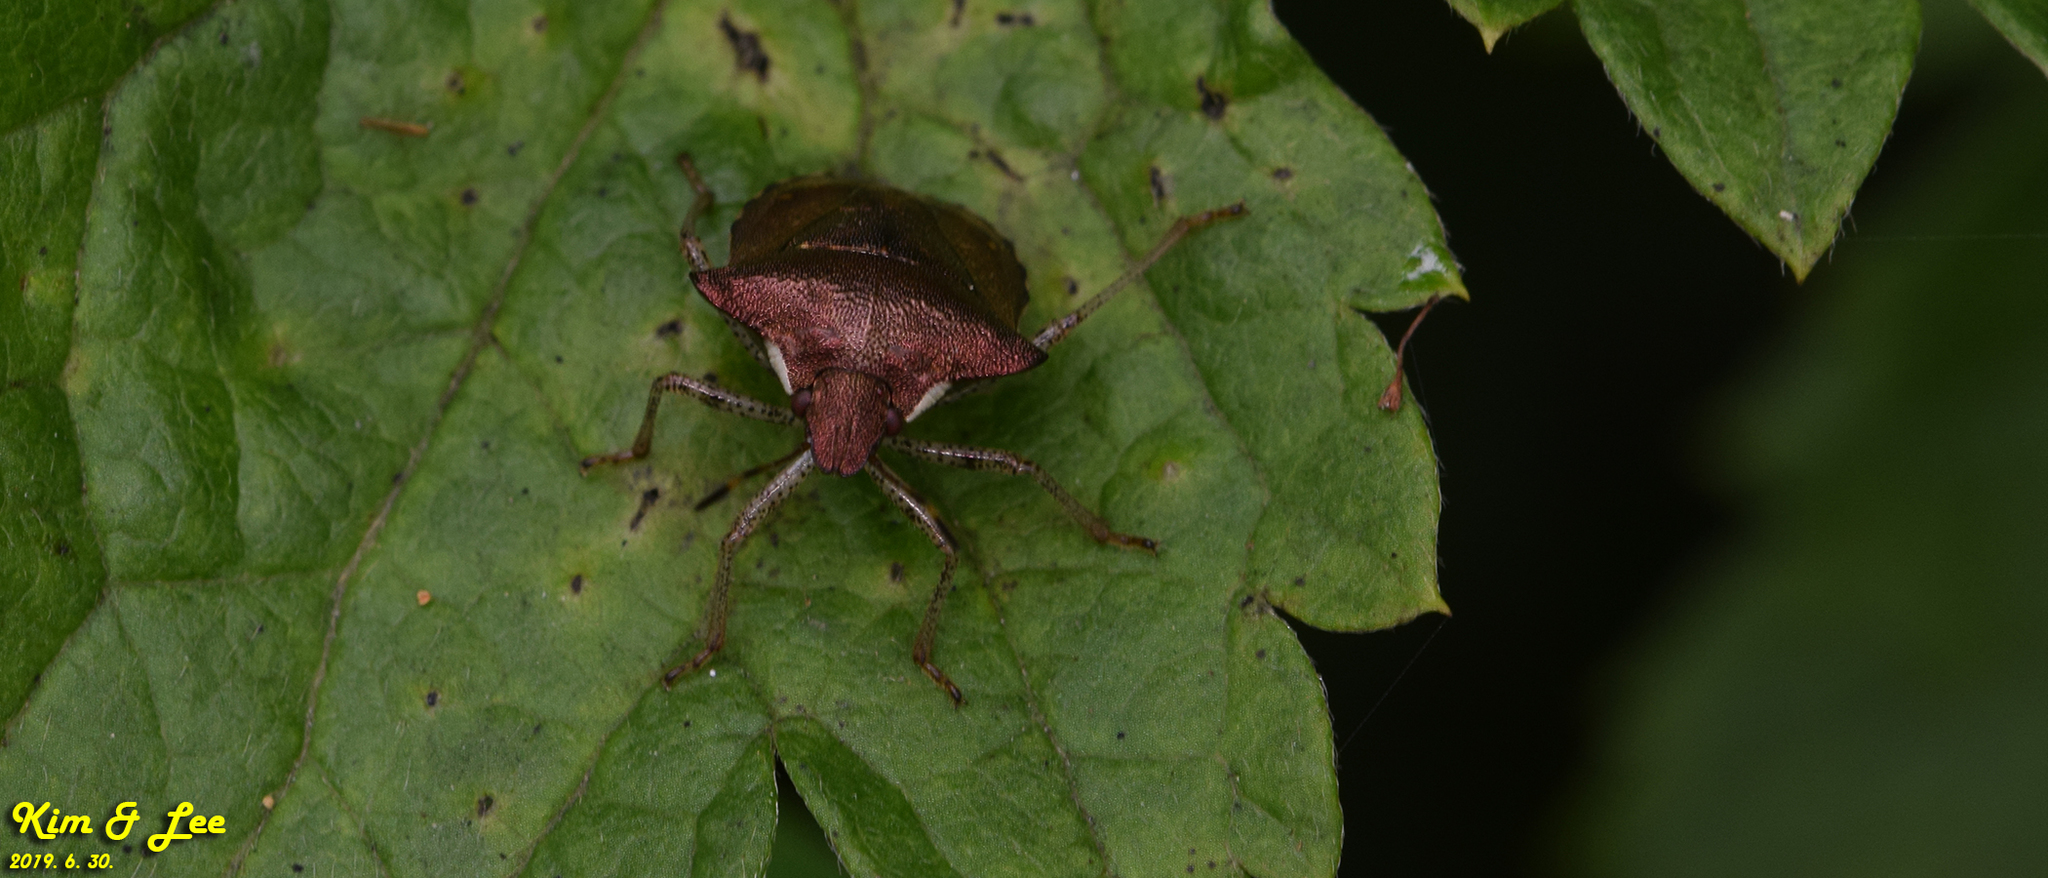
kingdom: Animalia
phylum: Arthropoda
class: Insecta
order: Hemiptera
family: Pentatomidae
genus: Carbula
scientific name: Carbula putoni
